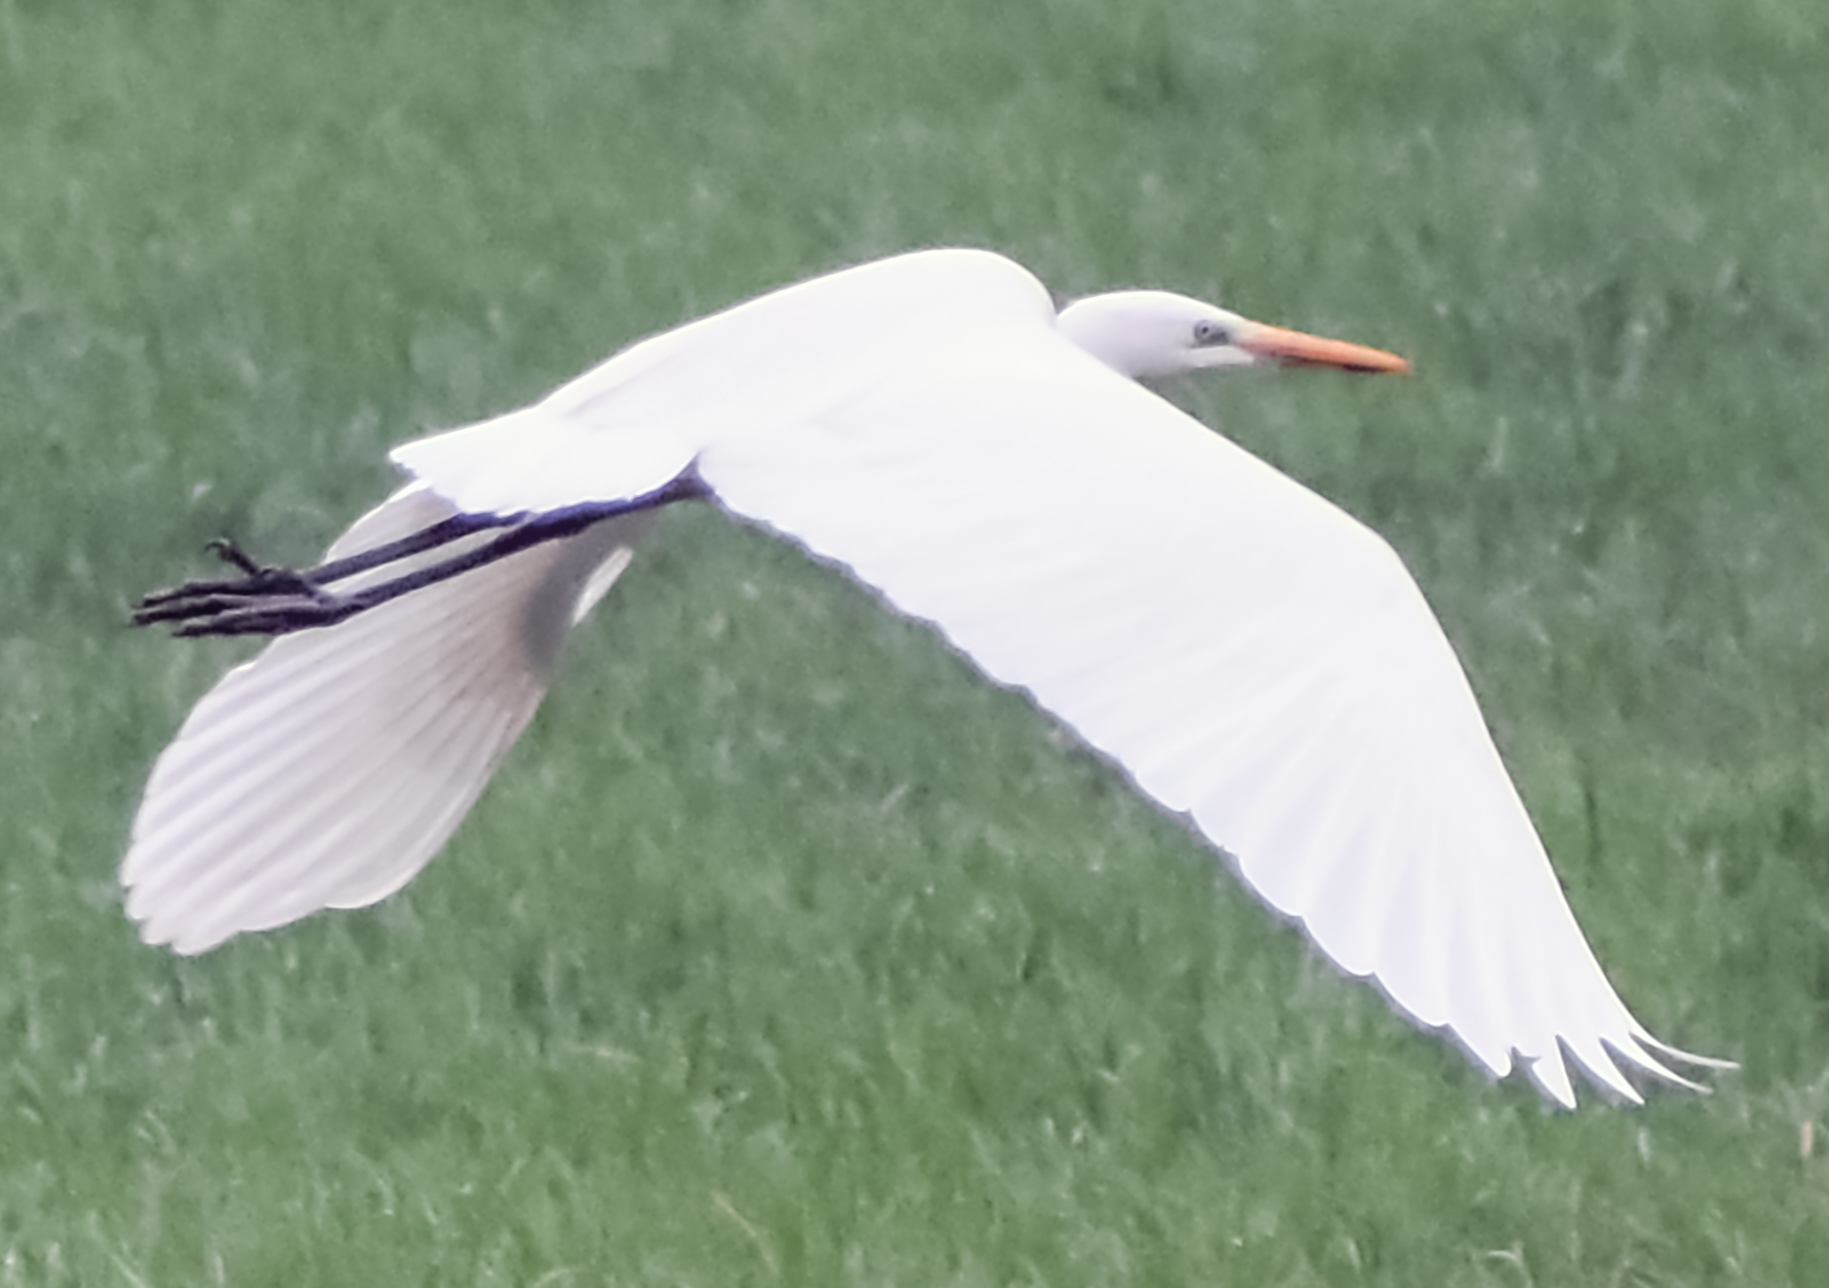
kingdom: Animalia
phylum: Chordata
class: Aves
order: Pelecaniformes
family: Ardeidae
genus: Ardea
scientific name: Ardea alba
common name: Great egret
